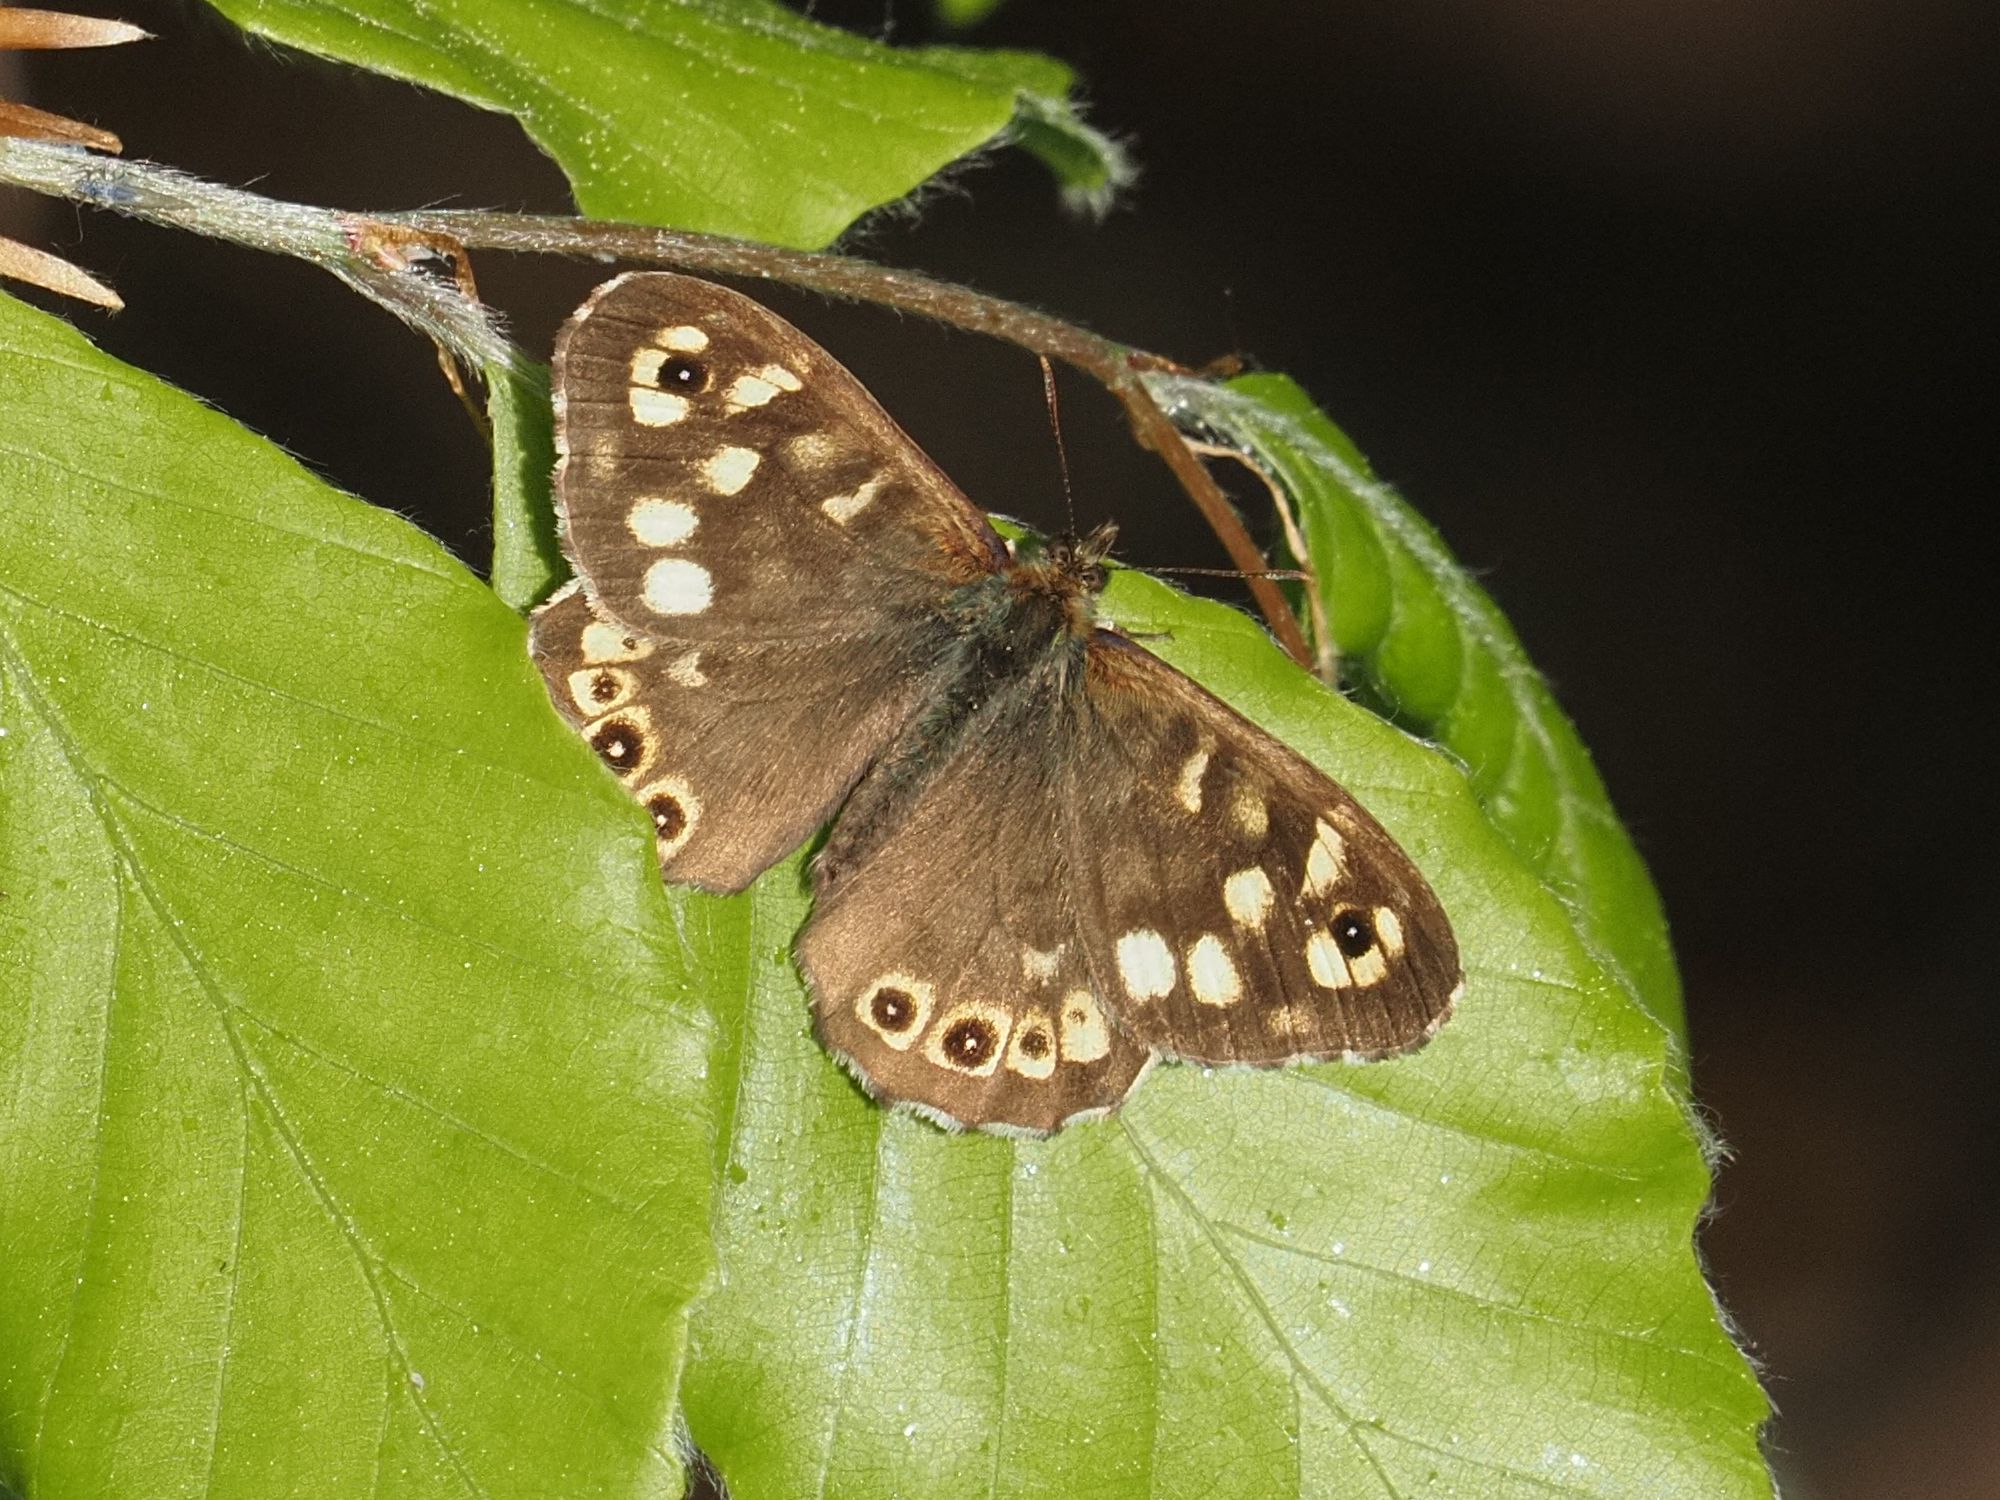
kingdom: Animalia
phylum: Arthropoda
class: Insecta
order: Lepidoptera
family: Nymphalidae
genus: Pararge
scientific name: Pararge aegeria
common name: Speckled wood
